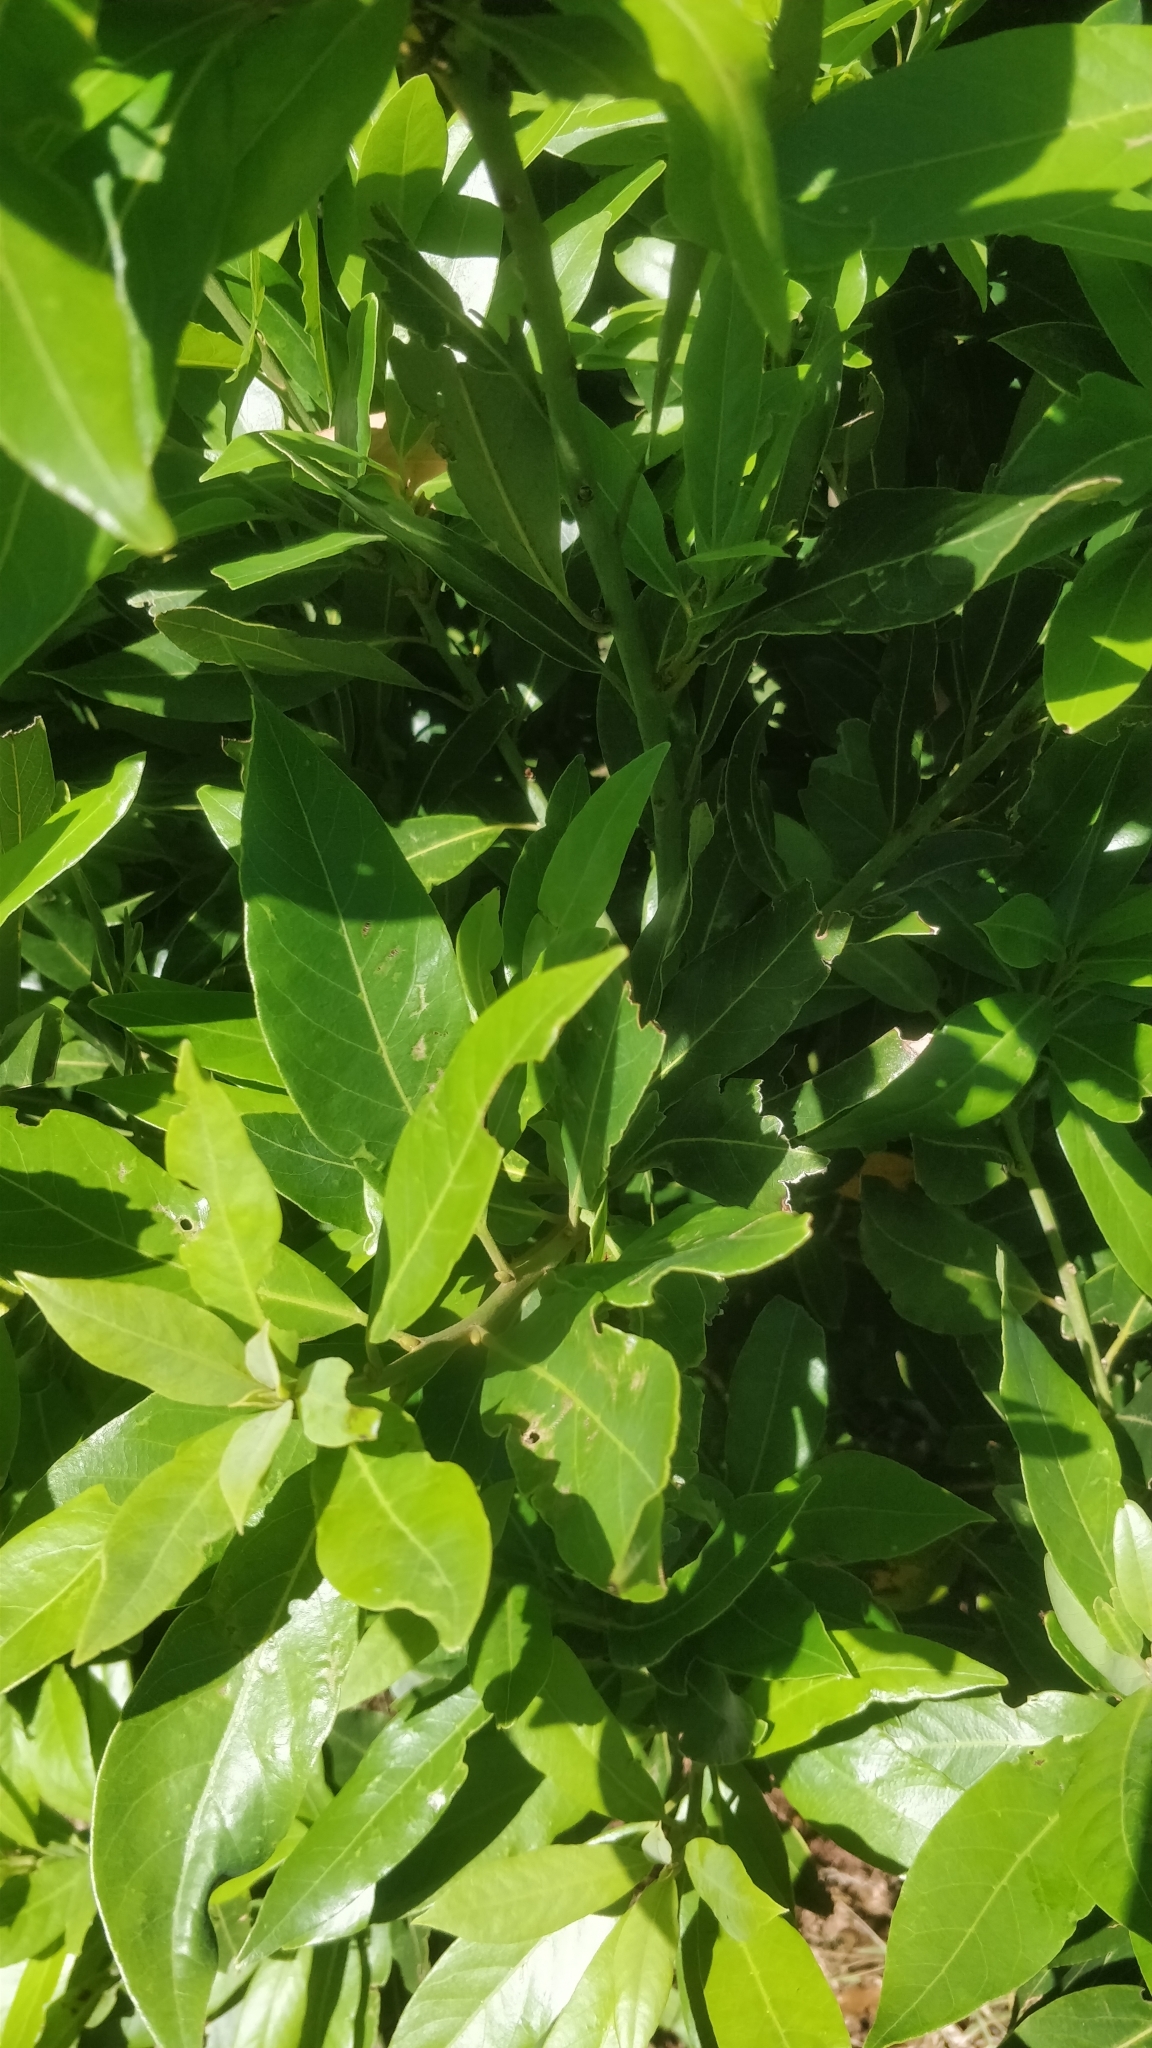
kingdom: Plantae
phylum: Tracheophyta
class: Magnoliopsida
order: Laurales
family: Lauraceae
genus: Laurus
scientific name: Laurus novocanariensis
